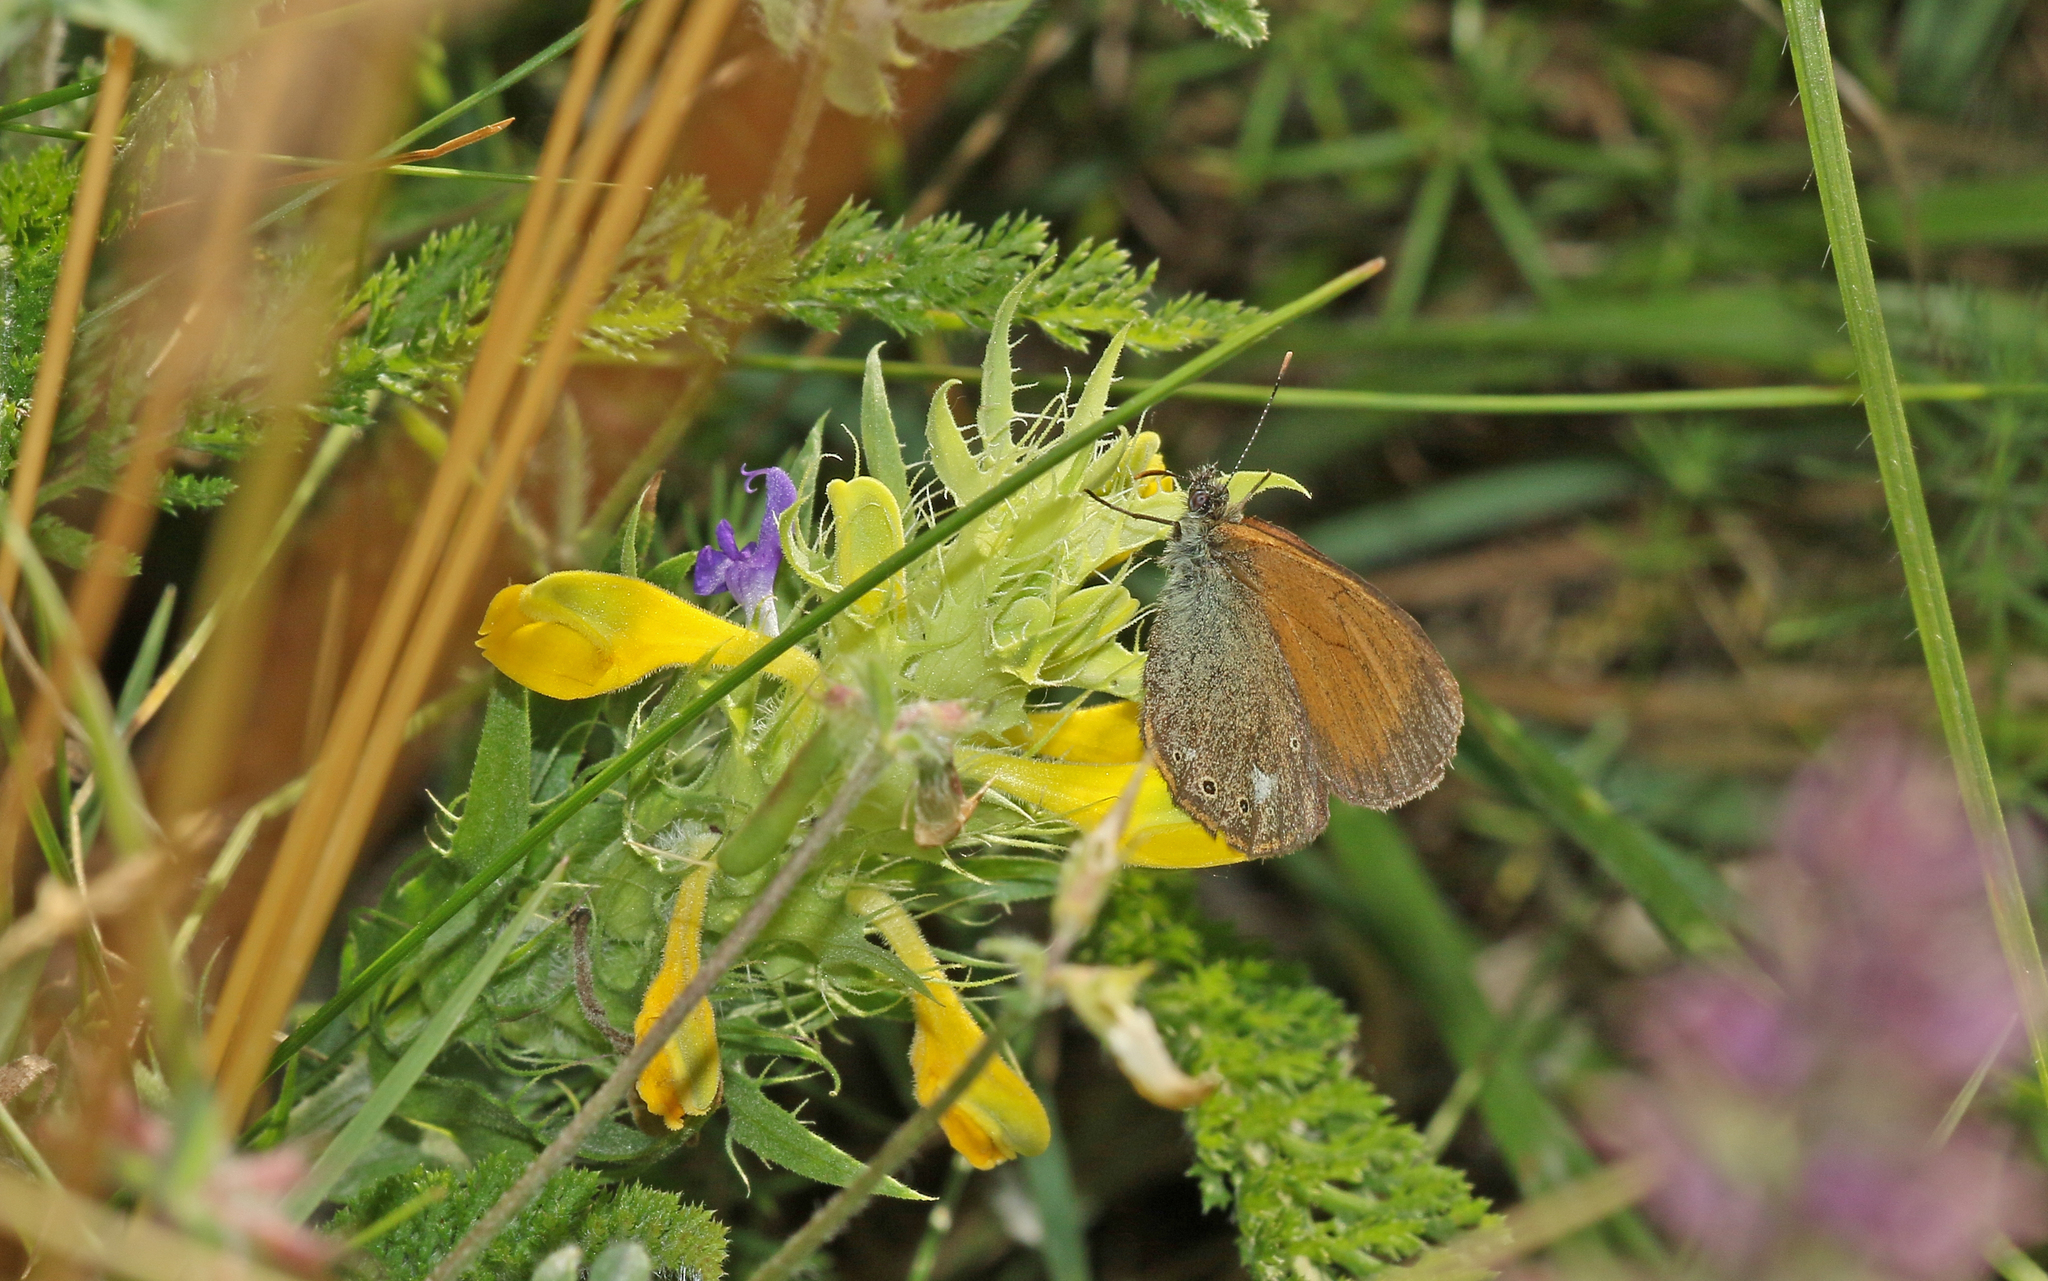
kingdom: Animalia
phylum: Arthropoda
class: Insecta
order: Lepidoptera
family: Nymphalidae
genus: Coenonympha
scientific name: Coenonympha iphis
